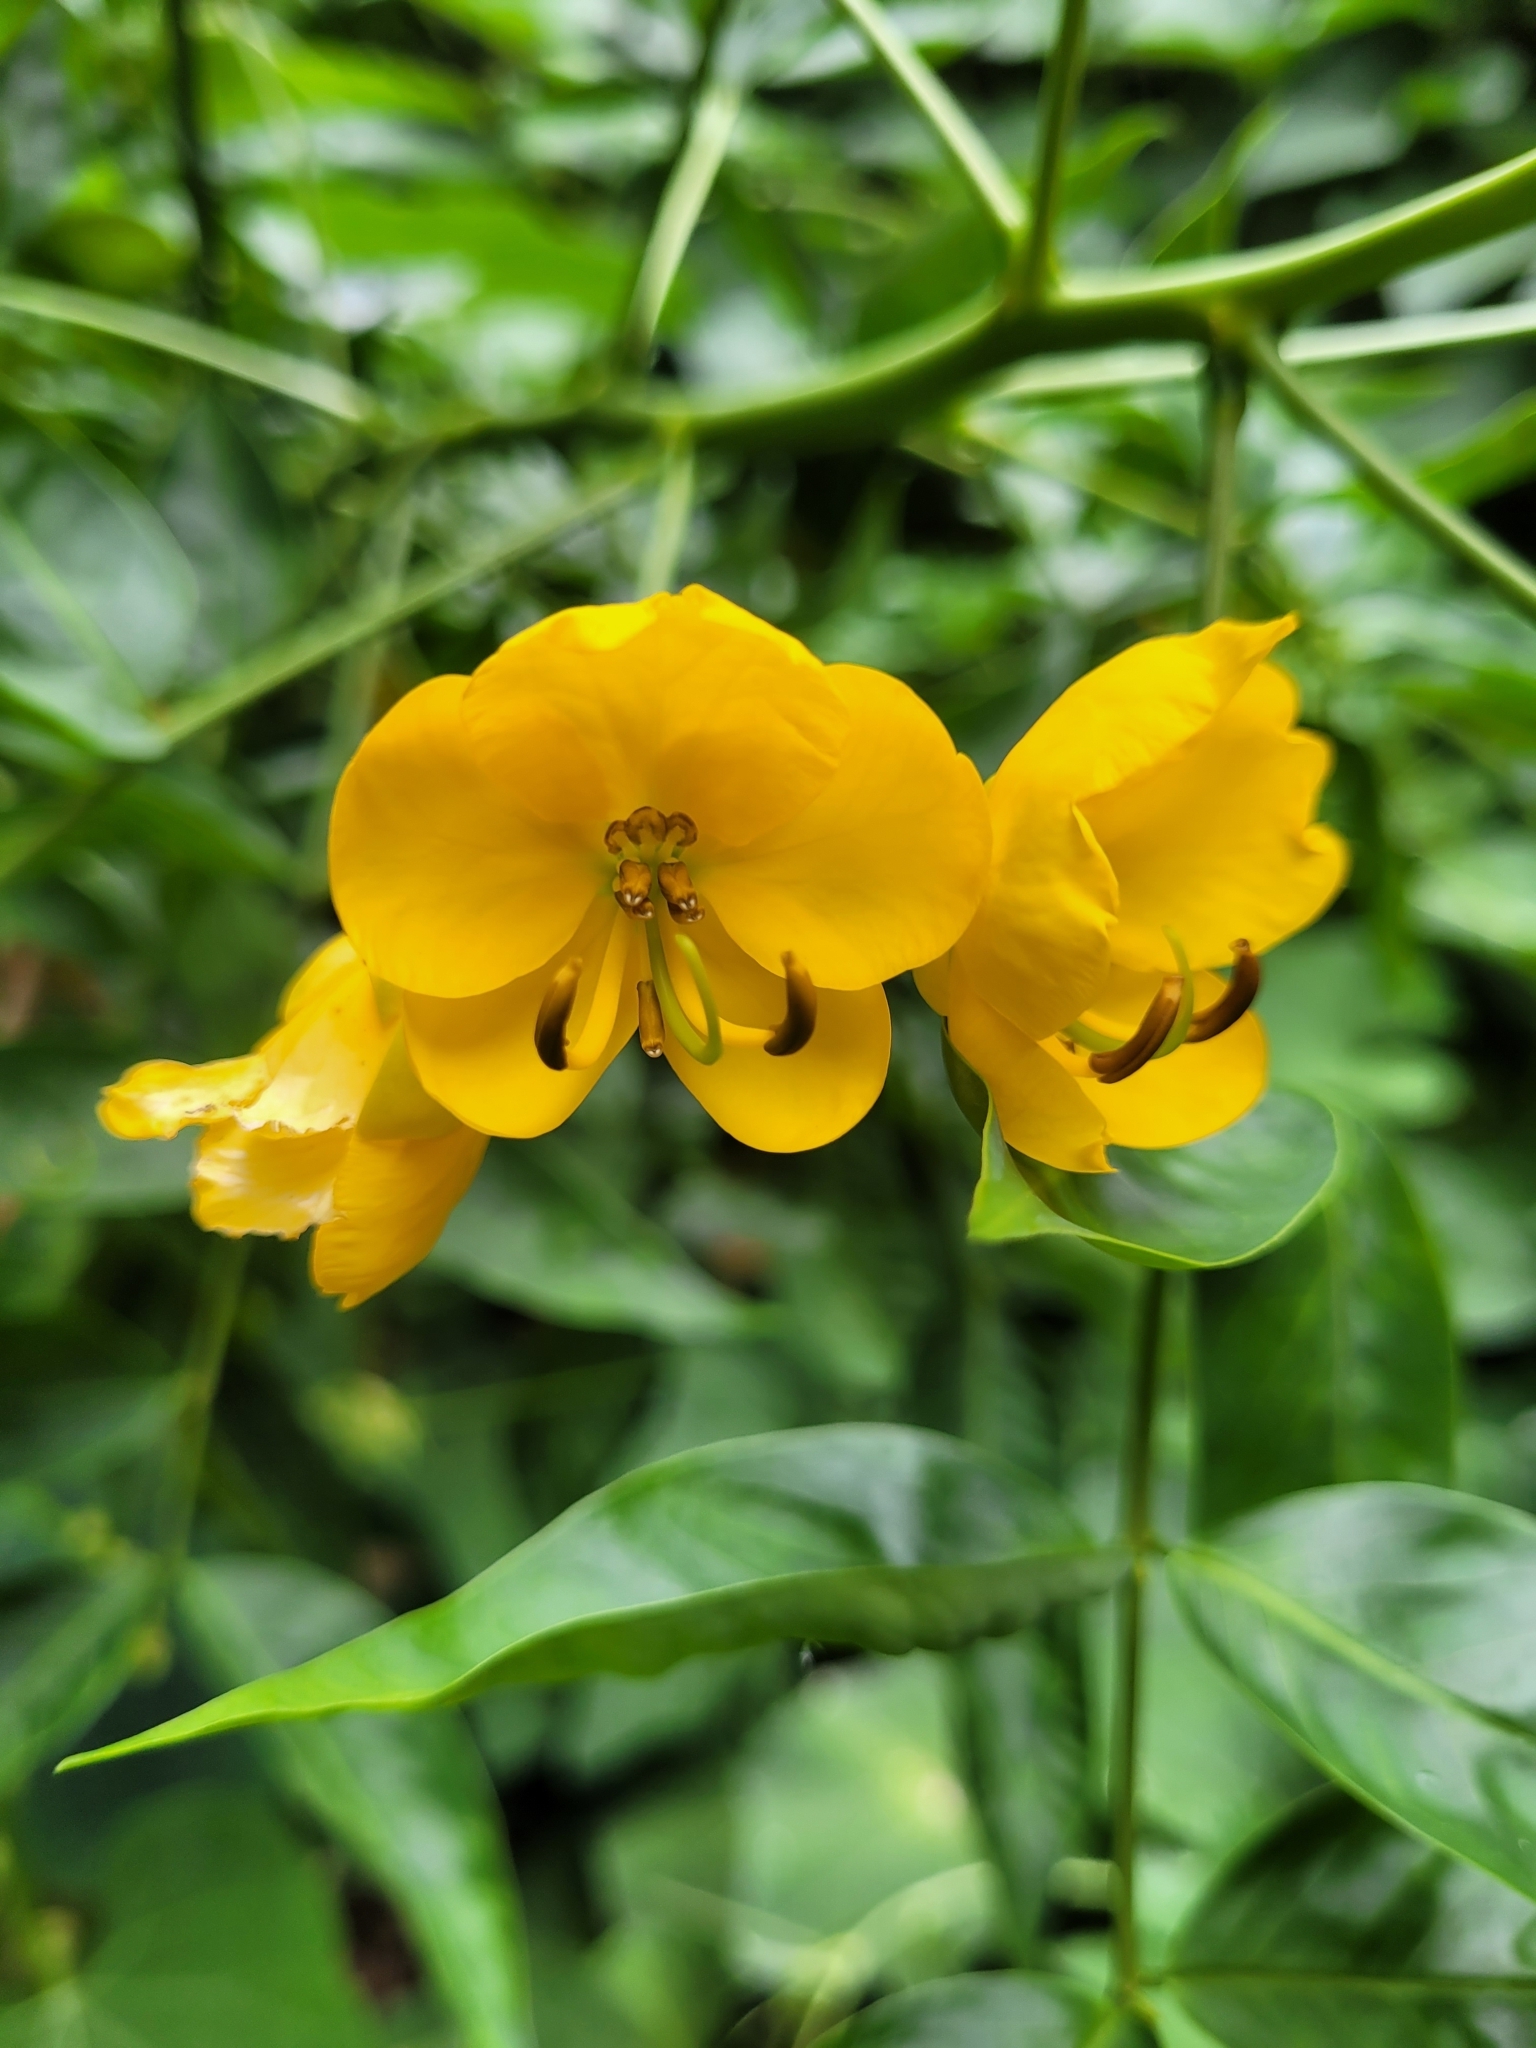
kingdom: Plantae
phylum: Tracheophyta
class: Magnoliopsida
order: Fabales
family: Fabaceae
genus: Senna
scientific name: Senna septemtrionalis
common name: Arsenic bush
